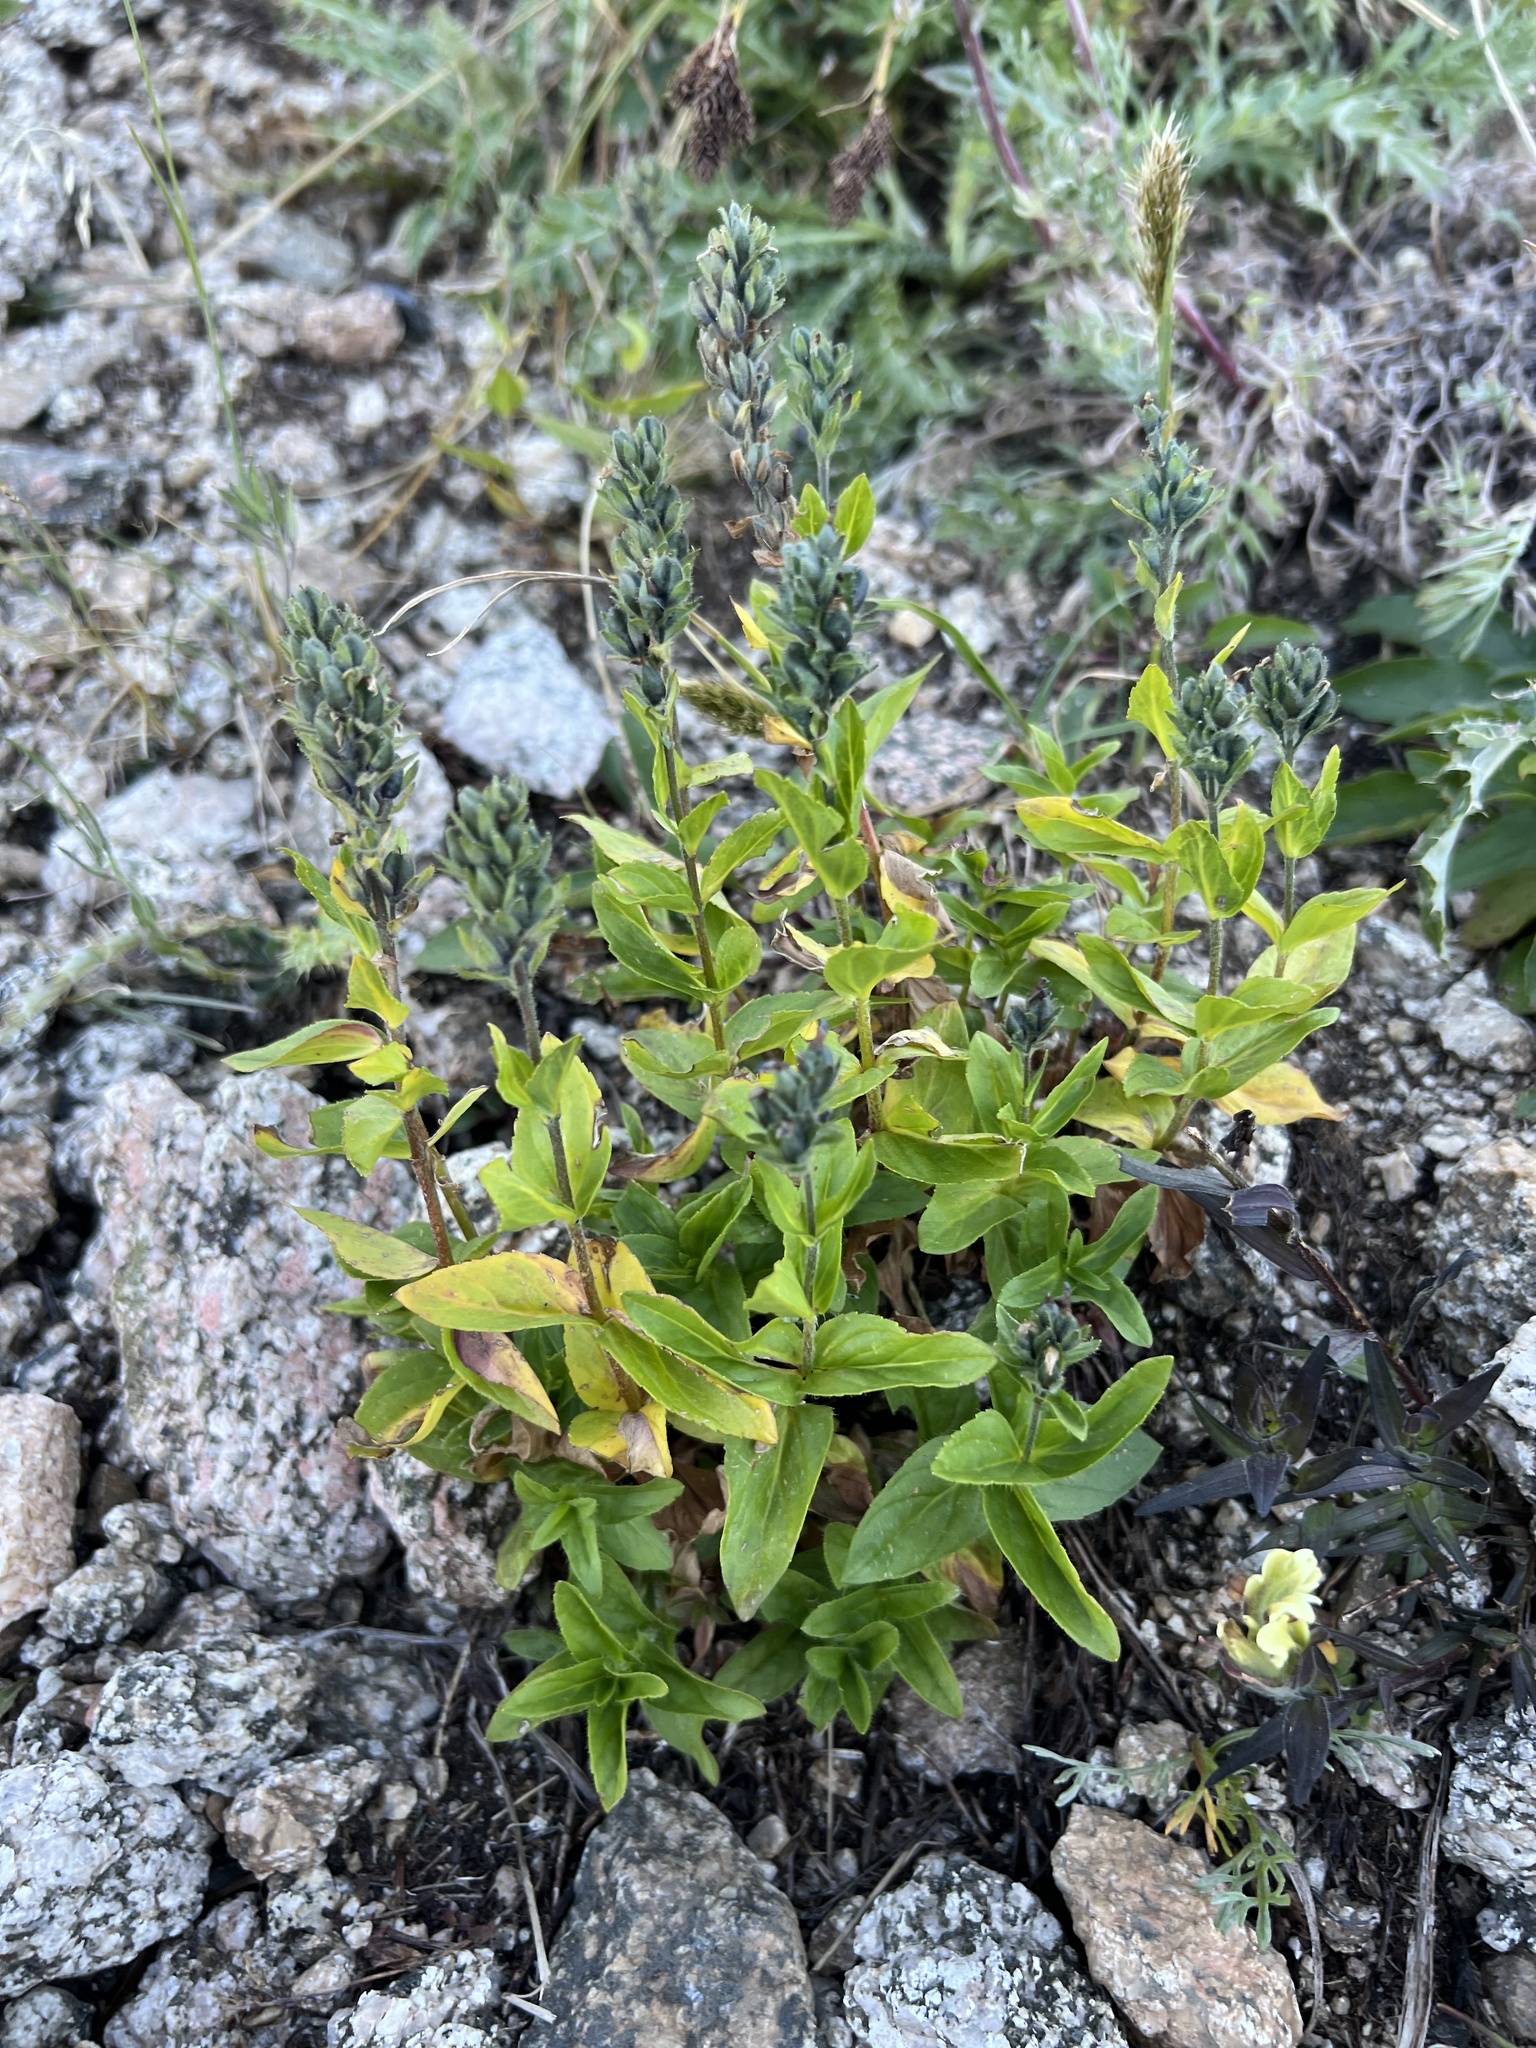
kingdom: Plantae
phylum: Tracheophyta
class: Magnoliopsida
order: Lamiales
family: Plantaginaceae
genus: Veronica
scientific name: Veronica wormskjoldii
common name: American alpine speedwell
